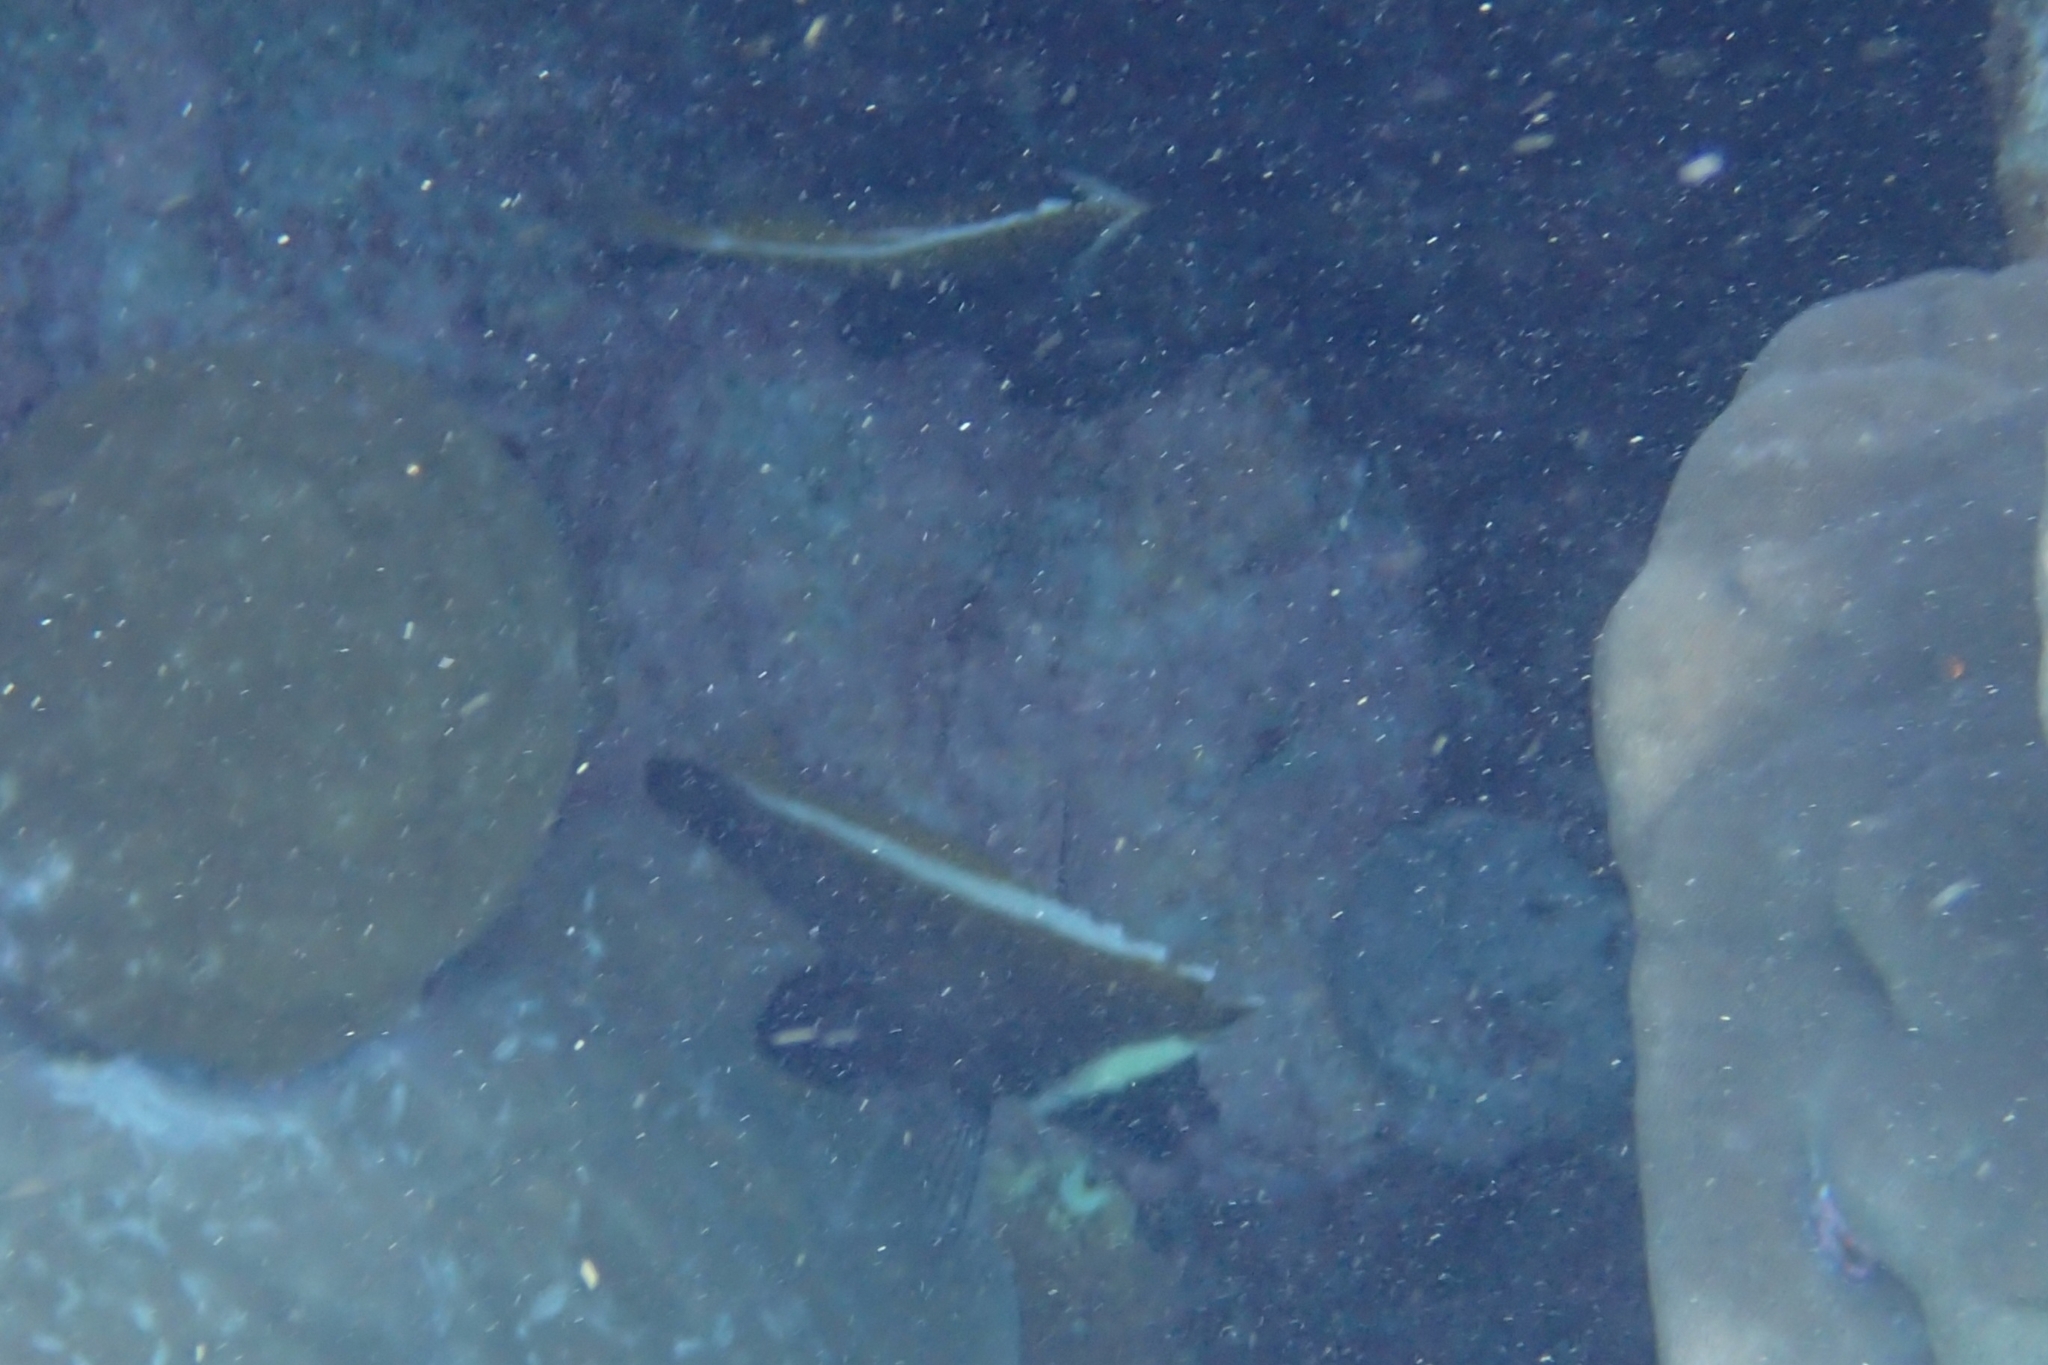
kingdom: Animalia
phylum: Chordata
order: Perciformes
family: Chaetodontidae
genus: Heniochus
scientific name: Heniochus varius
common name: Horned bannerfish
